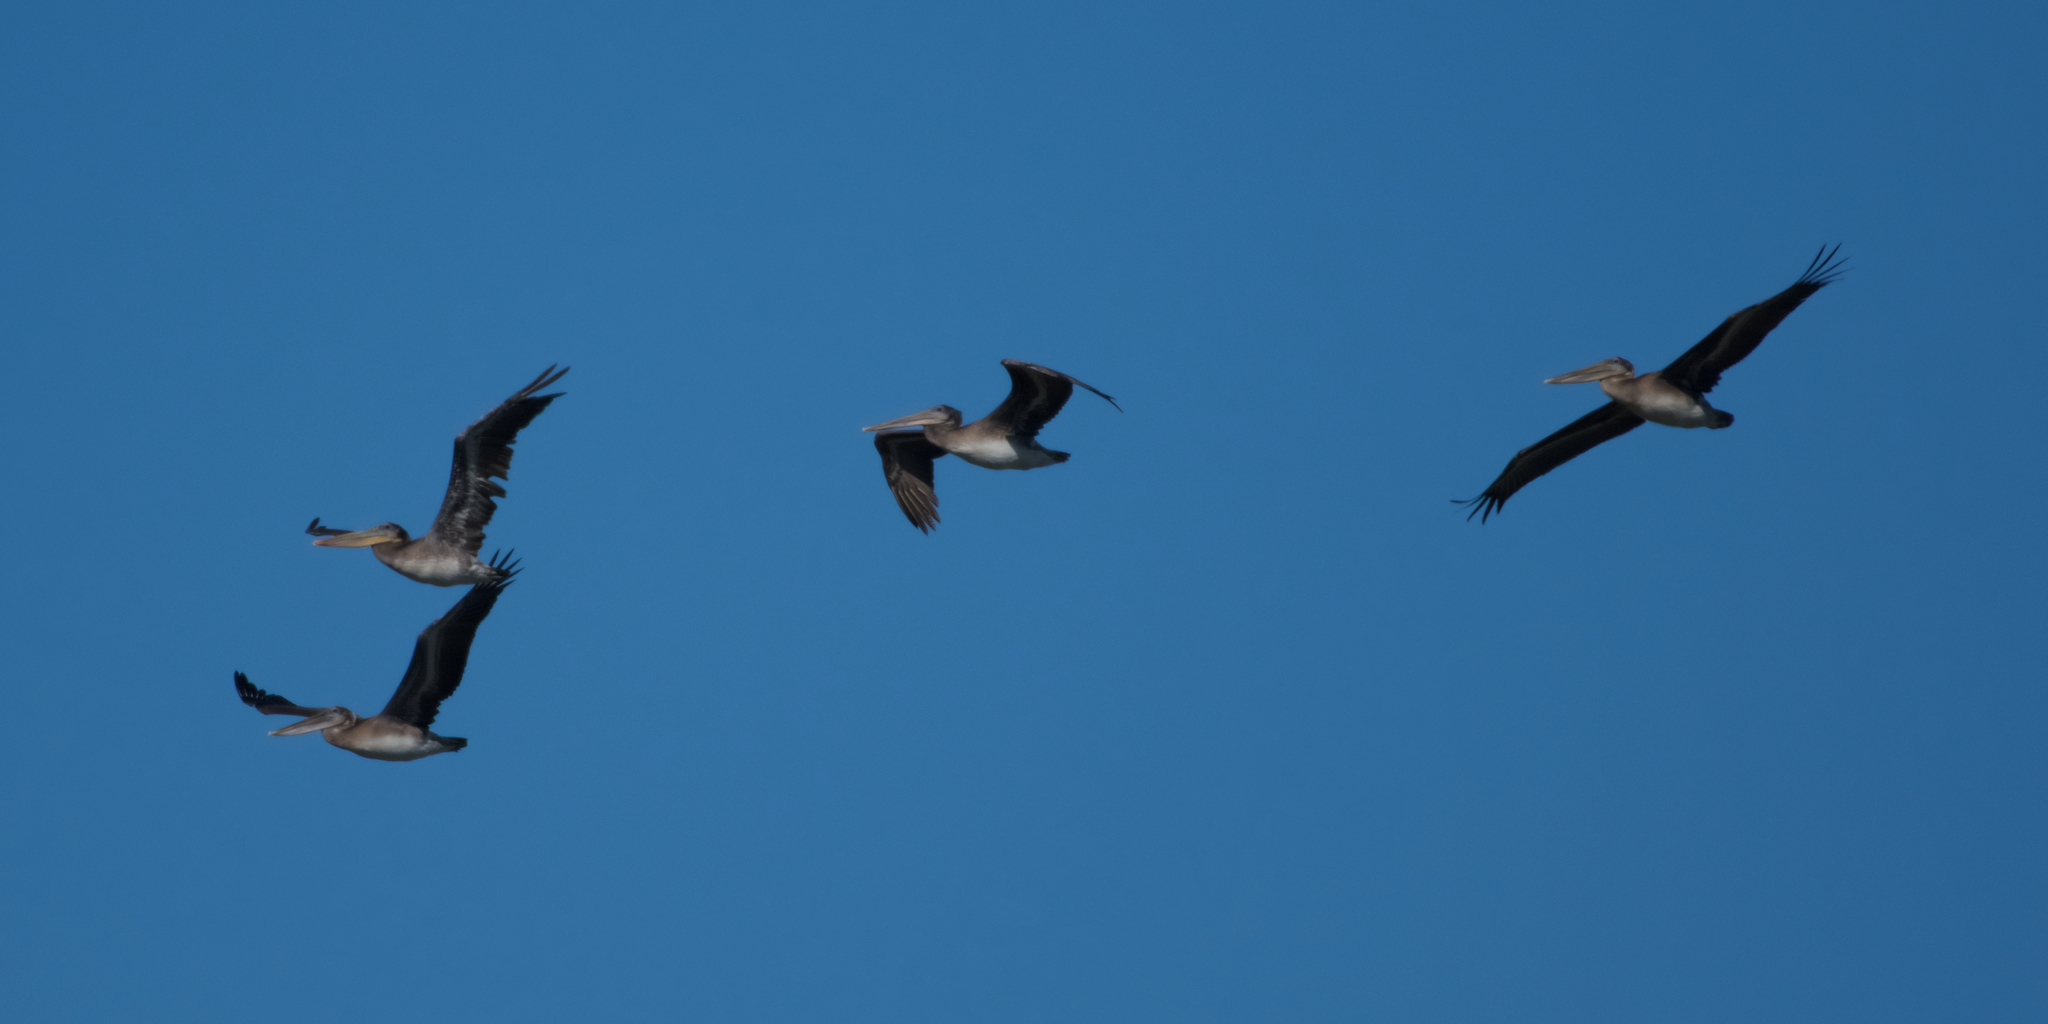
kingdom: Animalia
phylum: Chordata
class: Aves
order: Pelecaniformes
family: Pelecanidae
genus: Pelecanus
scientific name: Pelecanus occidentalis
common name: Brown pelican
